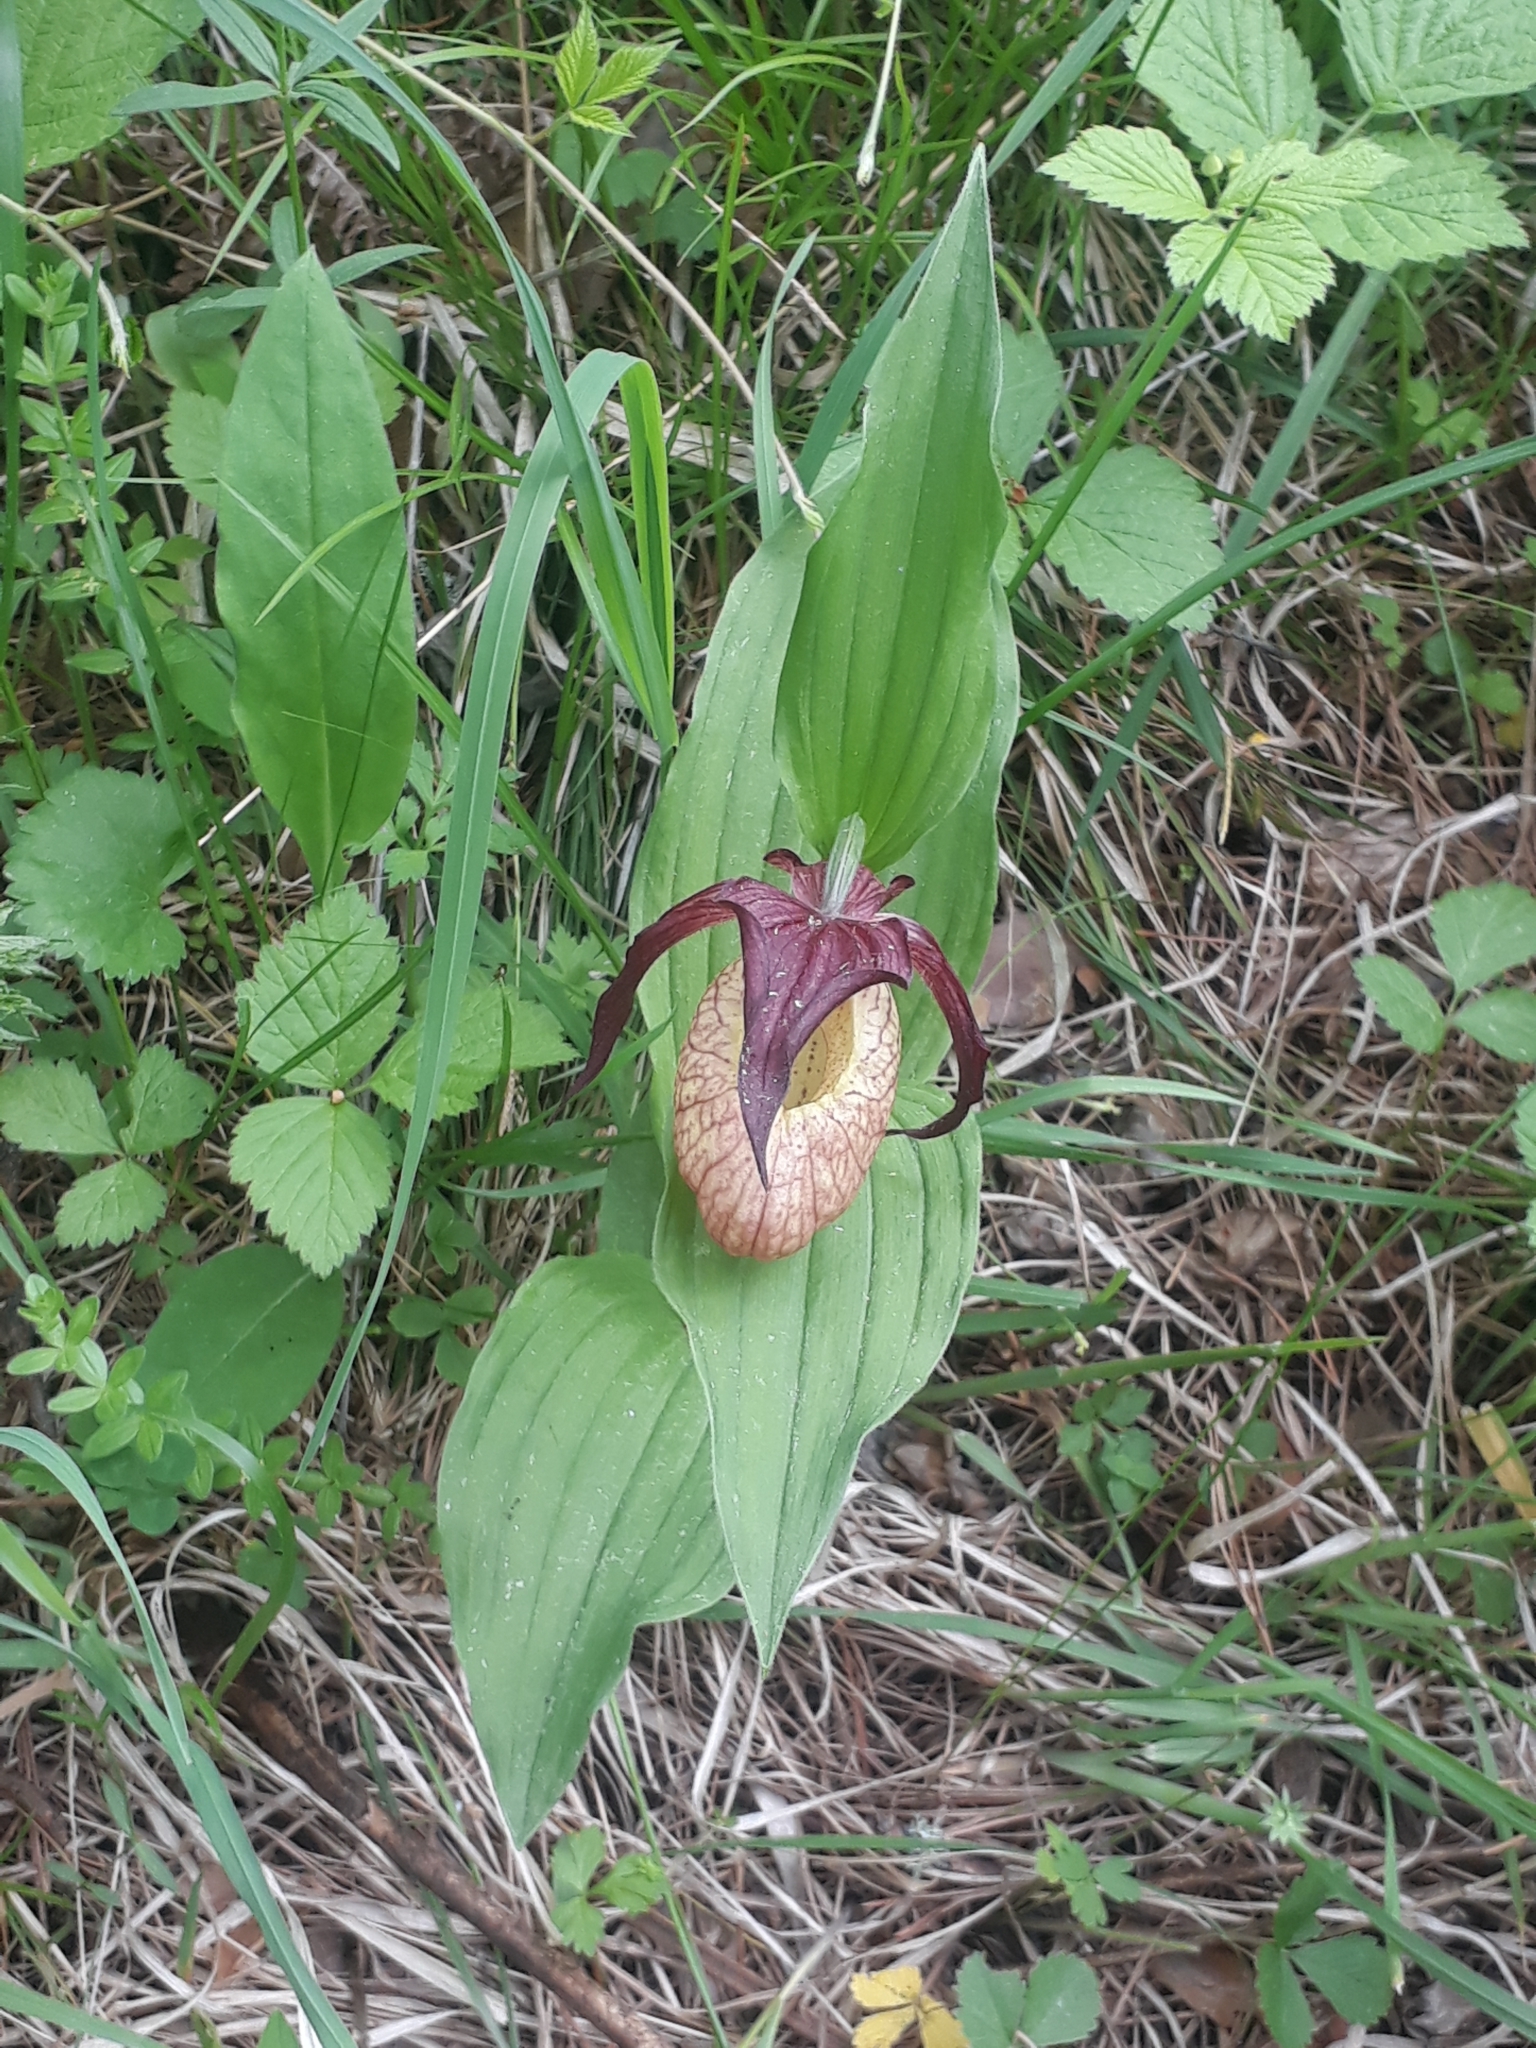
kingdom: Plantae
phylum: Tracheophyta
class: Liliopsida
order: Asparagales
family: Orchidaceae
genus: Cypripedium
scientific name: Cypripedium ventricosum
